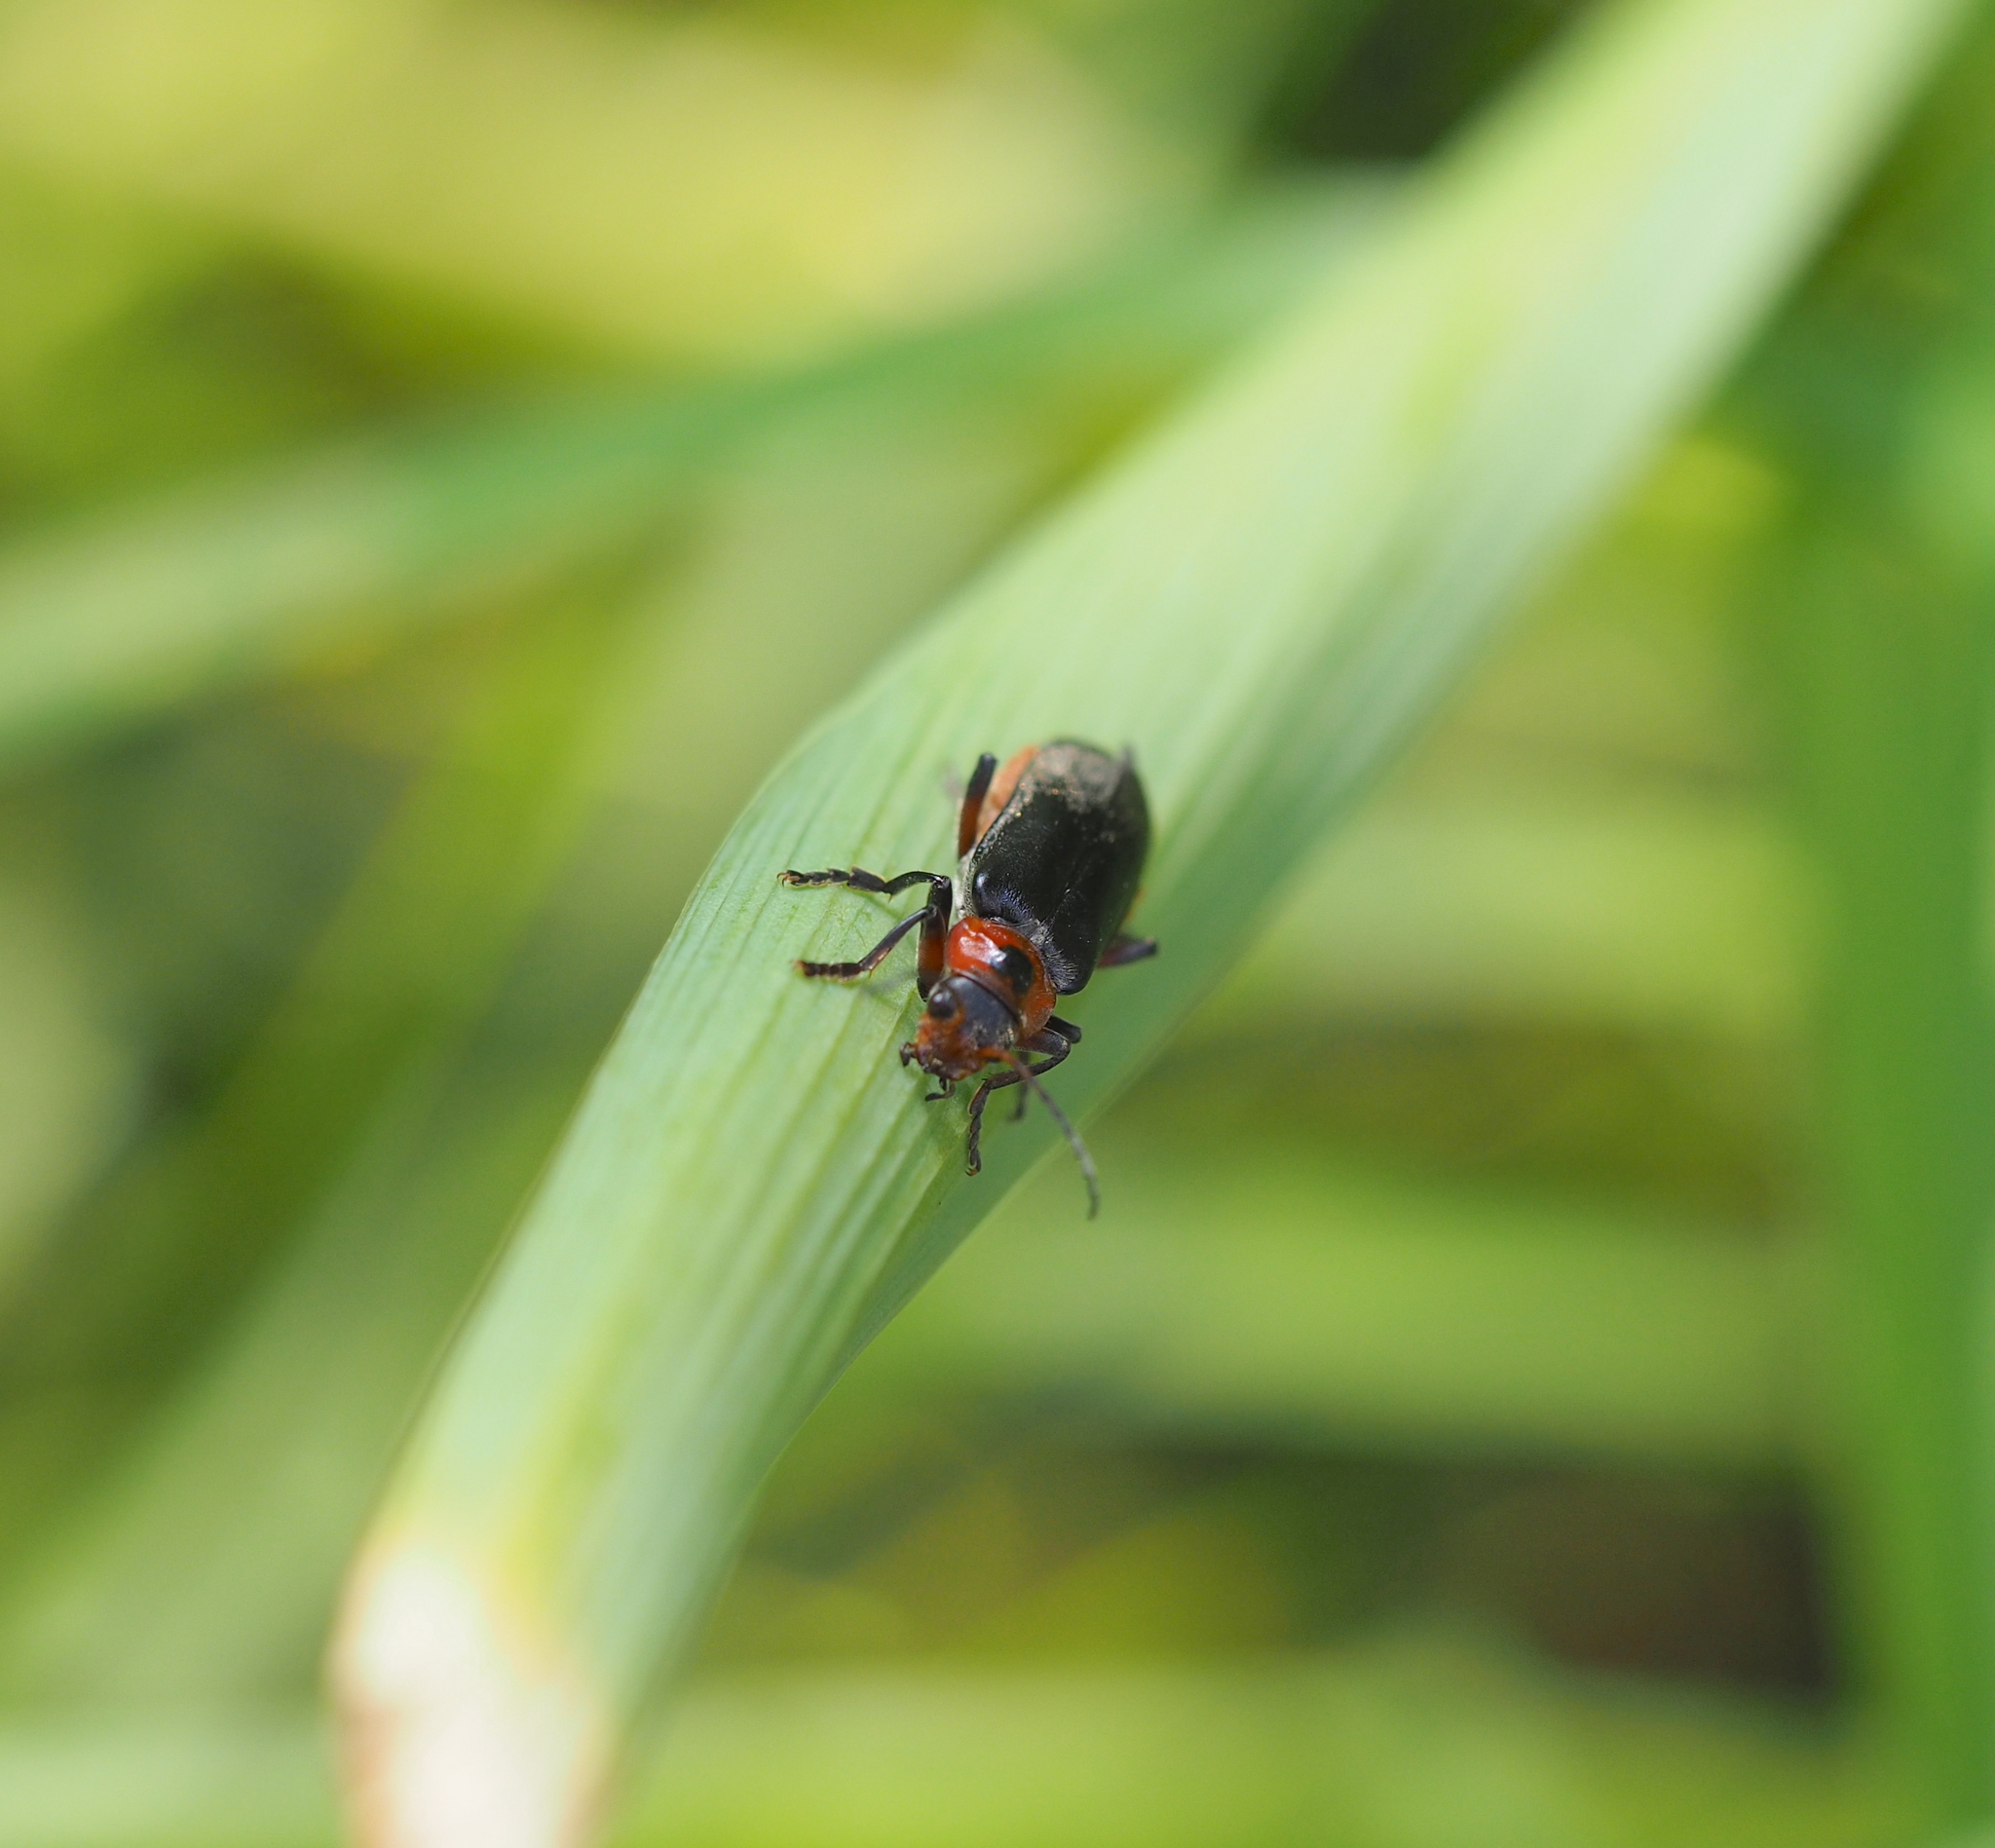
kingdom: Animalia
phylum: Arthropoda
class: Insecta
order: Coleoptera
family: Cantharidae
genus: Cantharis
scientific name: Cantharis rustica
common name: Soldier beetle
